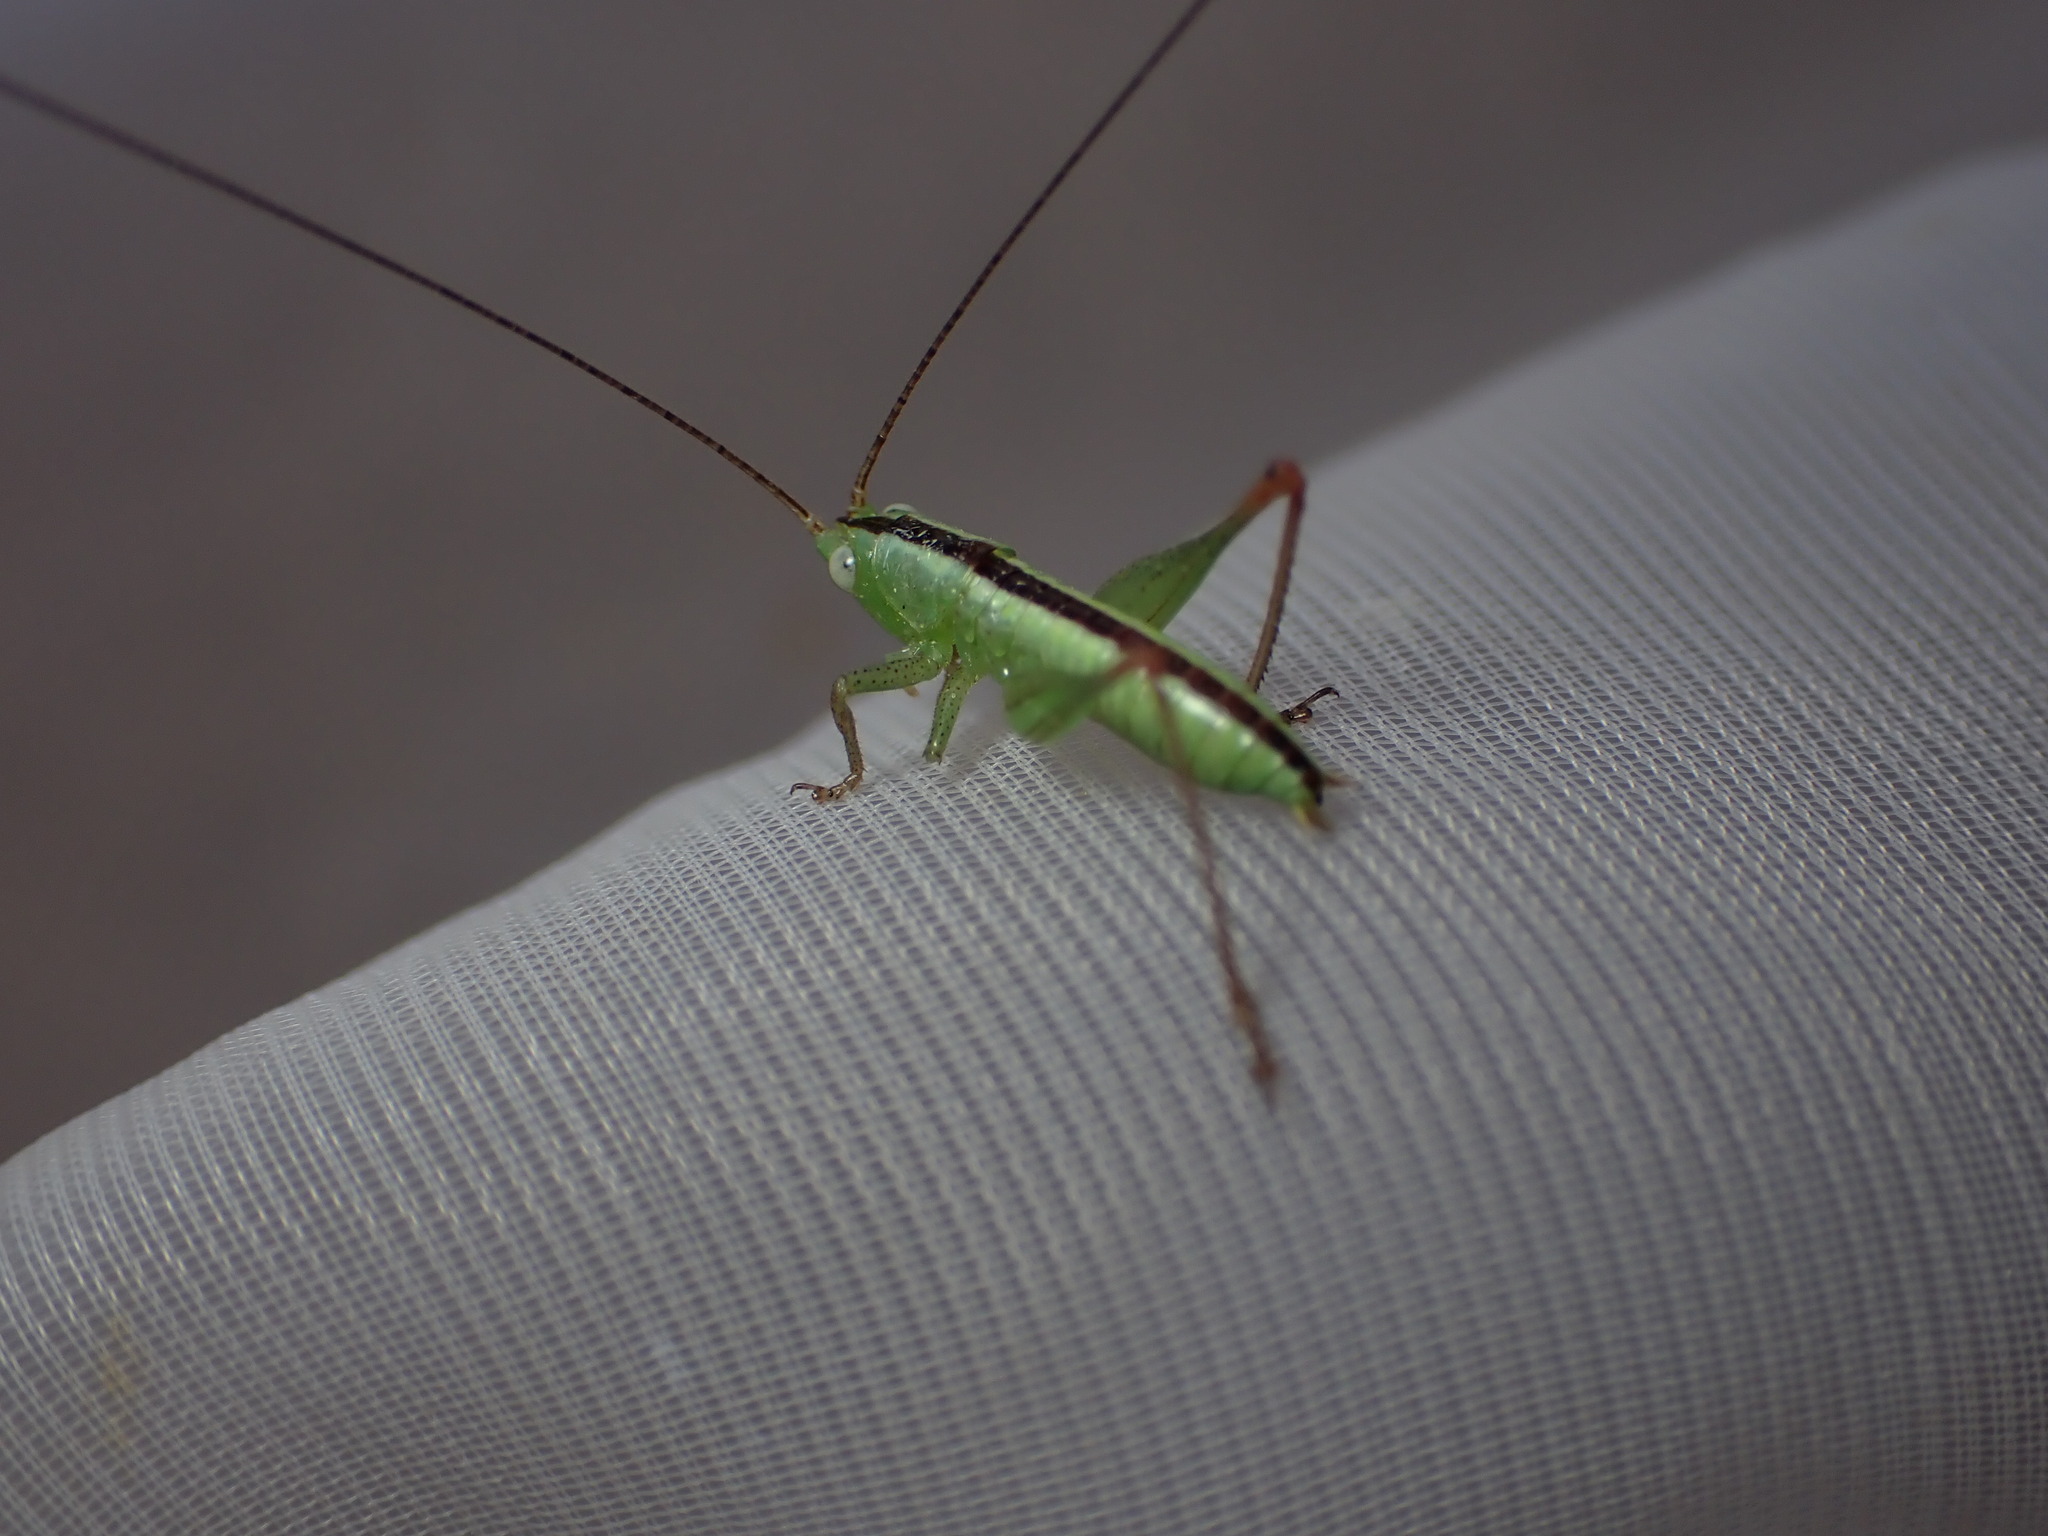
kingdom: Animalia
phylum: Arthropoda
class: Insecta
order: Orthoptera
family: Tettigoniidae
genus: Conocephalus
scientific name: Conocephalus fuscus
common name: Long-winged conehead
